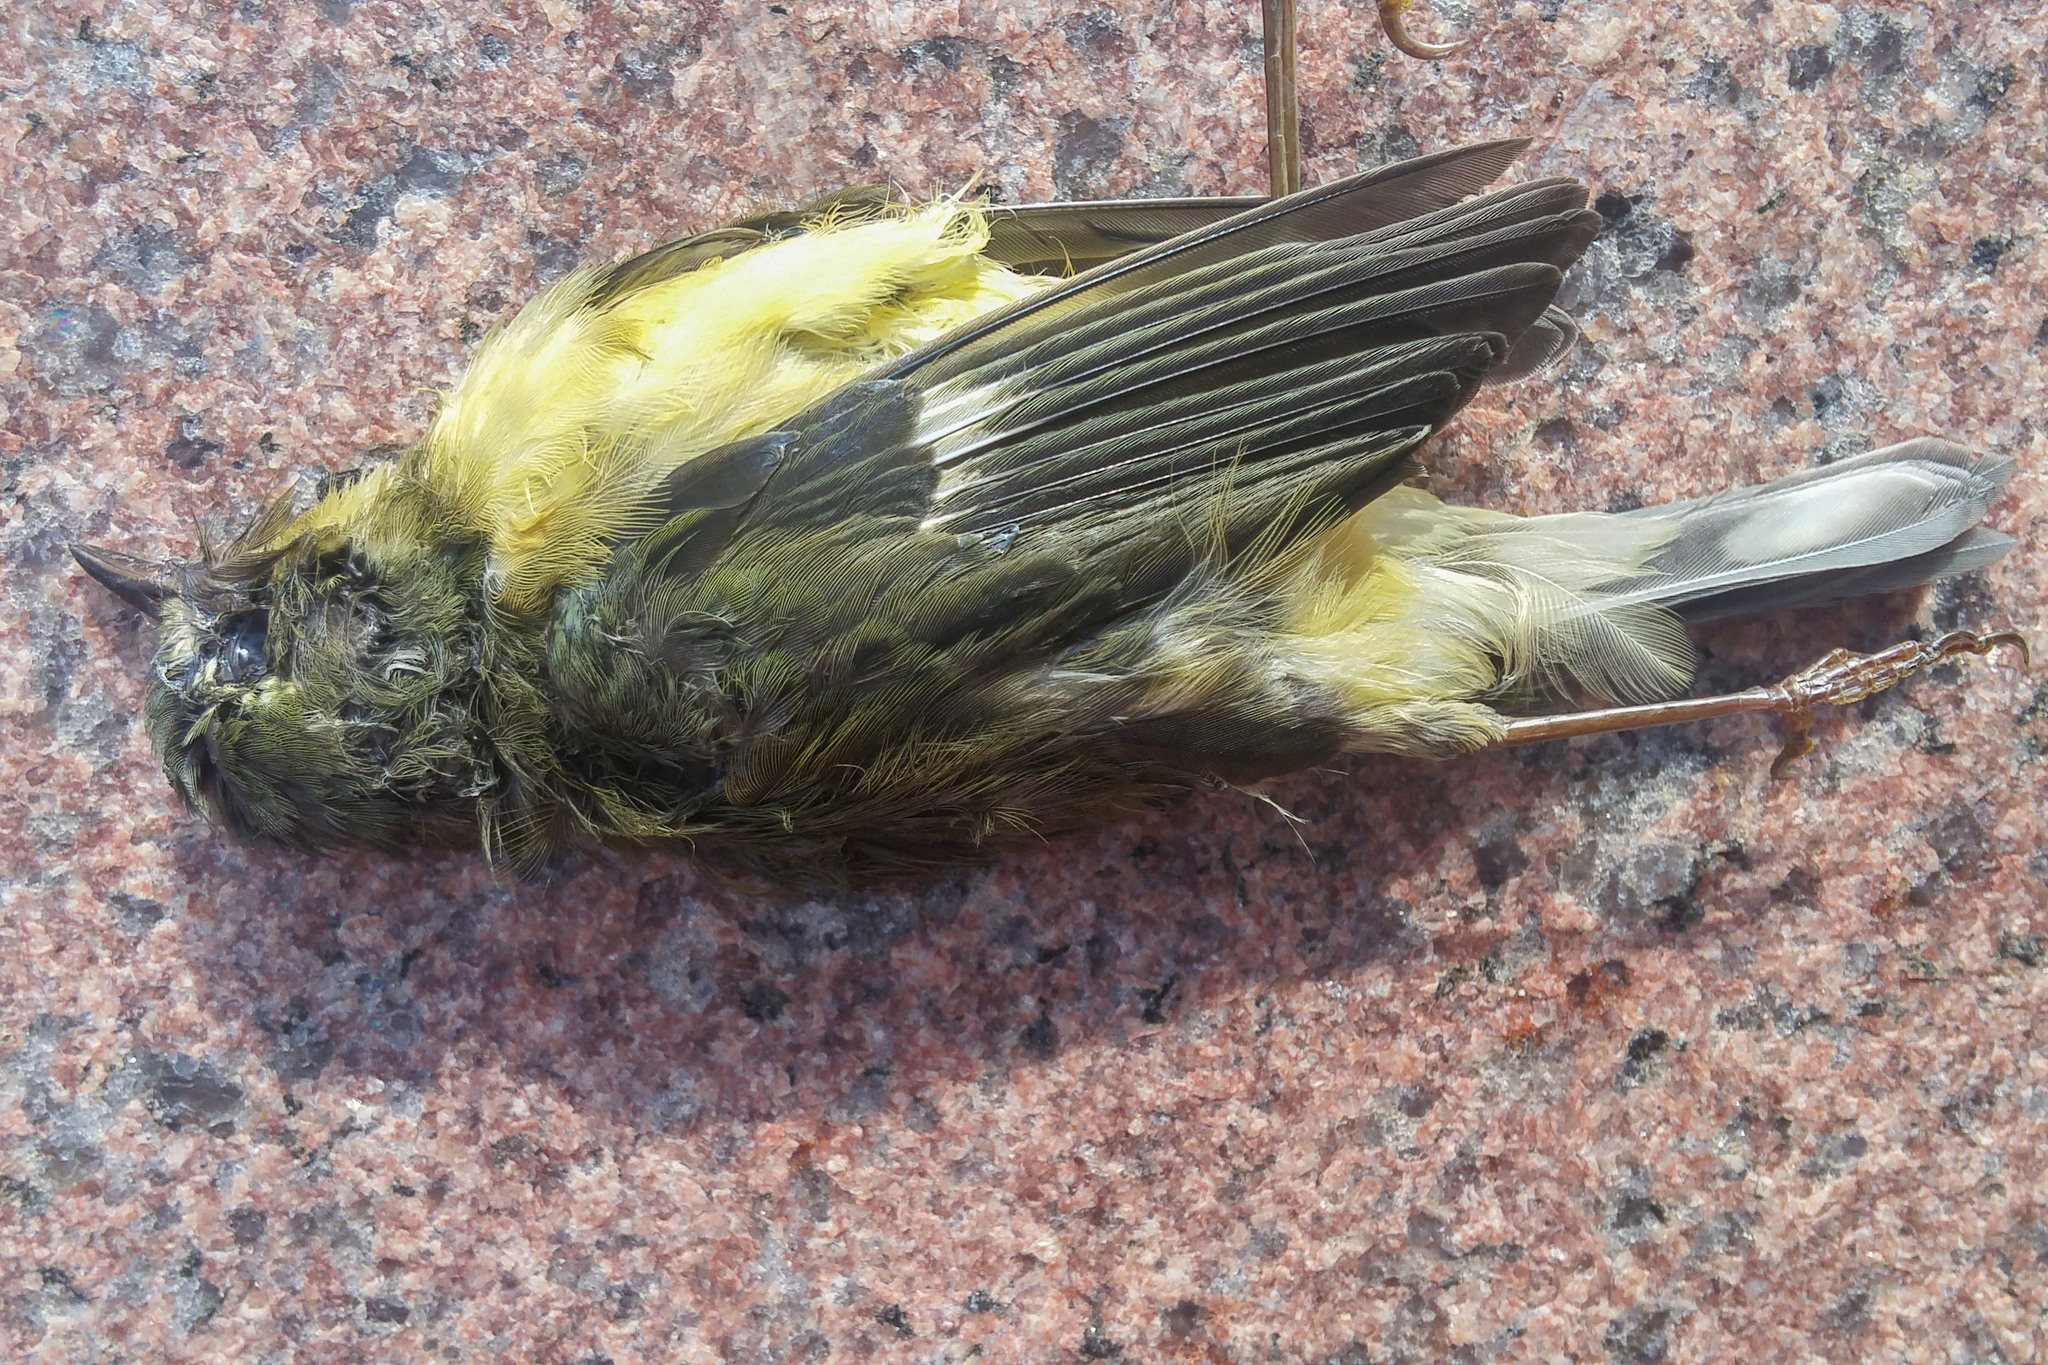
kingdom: Animalia
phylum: Chordata
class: Aves
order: Passeriformes
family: Parulidae
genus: Setophaga
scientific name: Setophaga caerulescens
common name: Black-throated blue warbler
